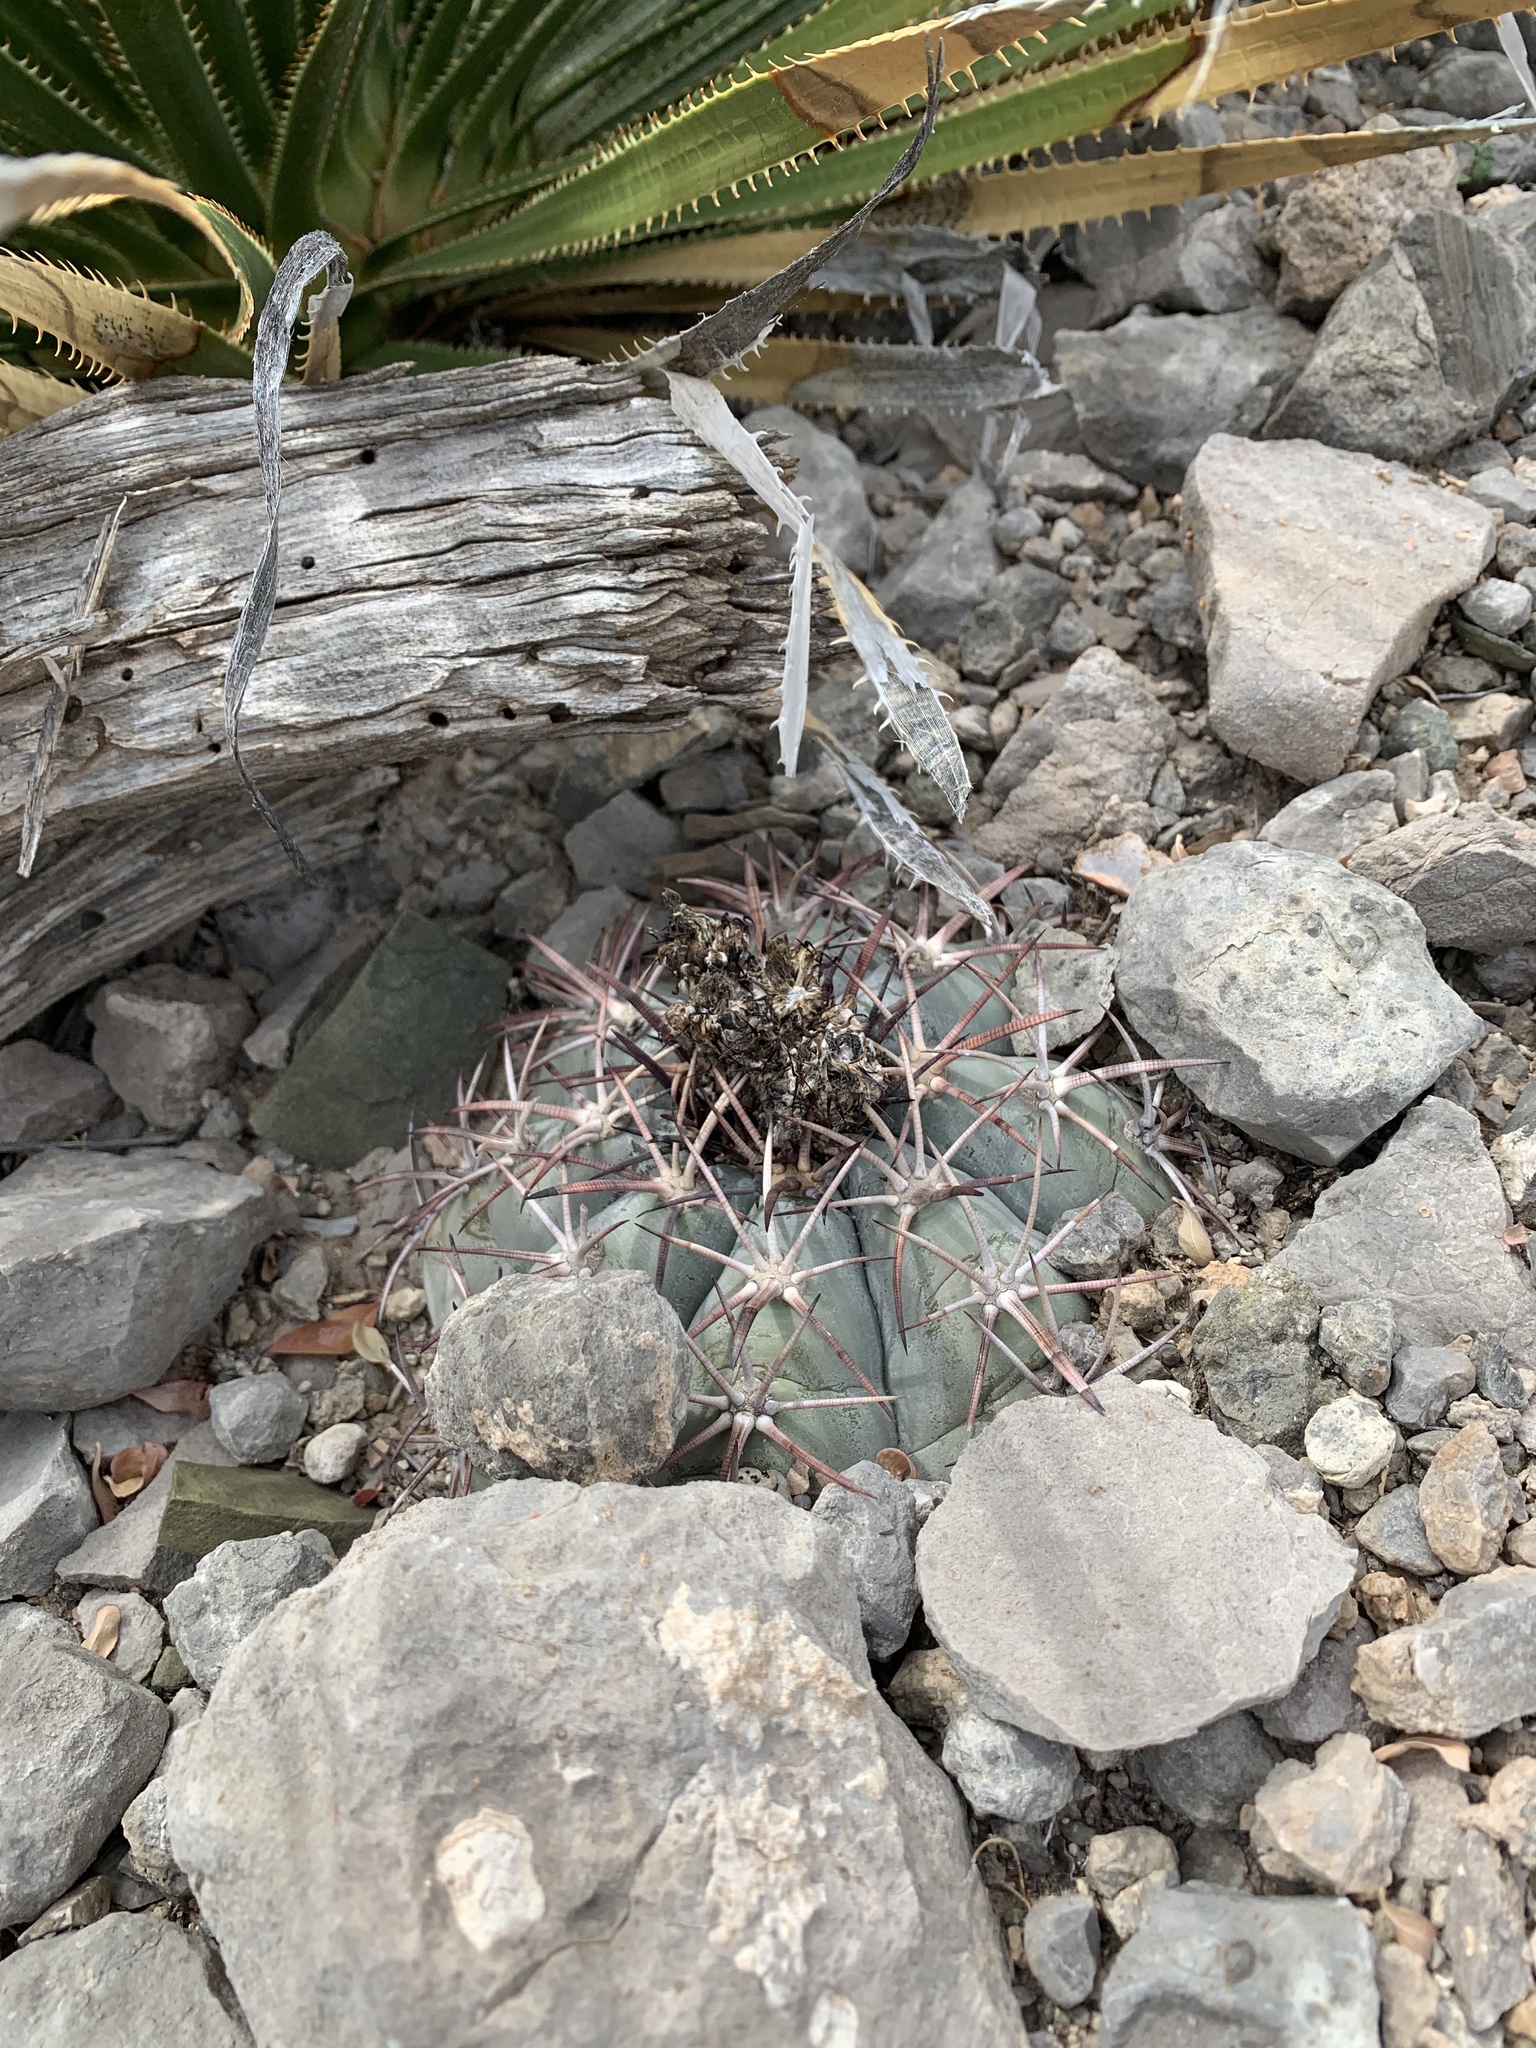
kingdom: Plantae
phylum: Tracheophyta
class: Magnoliopsida
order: Caryophyllales
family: Cactaceae
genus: Echinocactus
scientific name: Echinocactus horizonthalonius
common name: Devilshead
